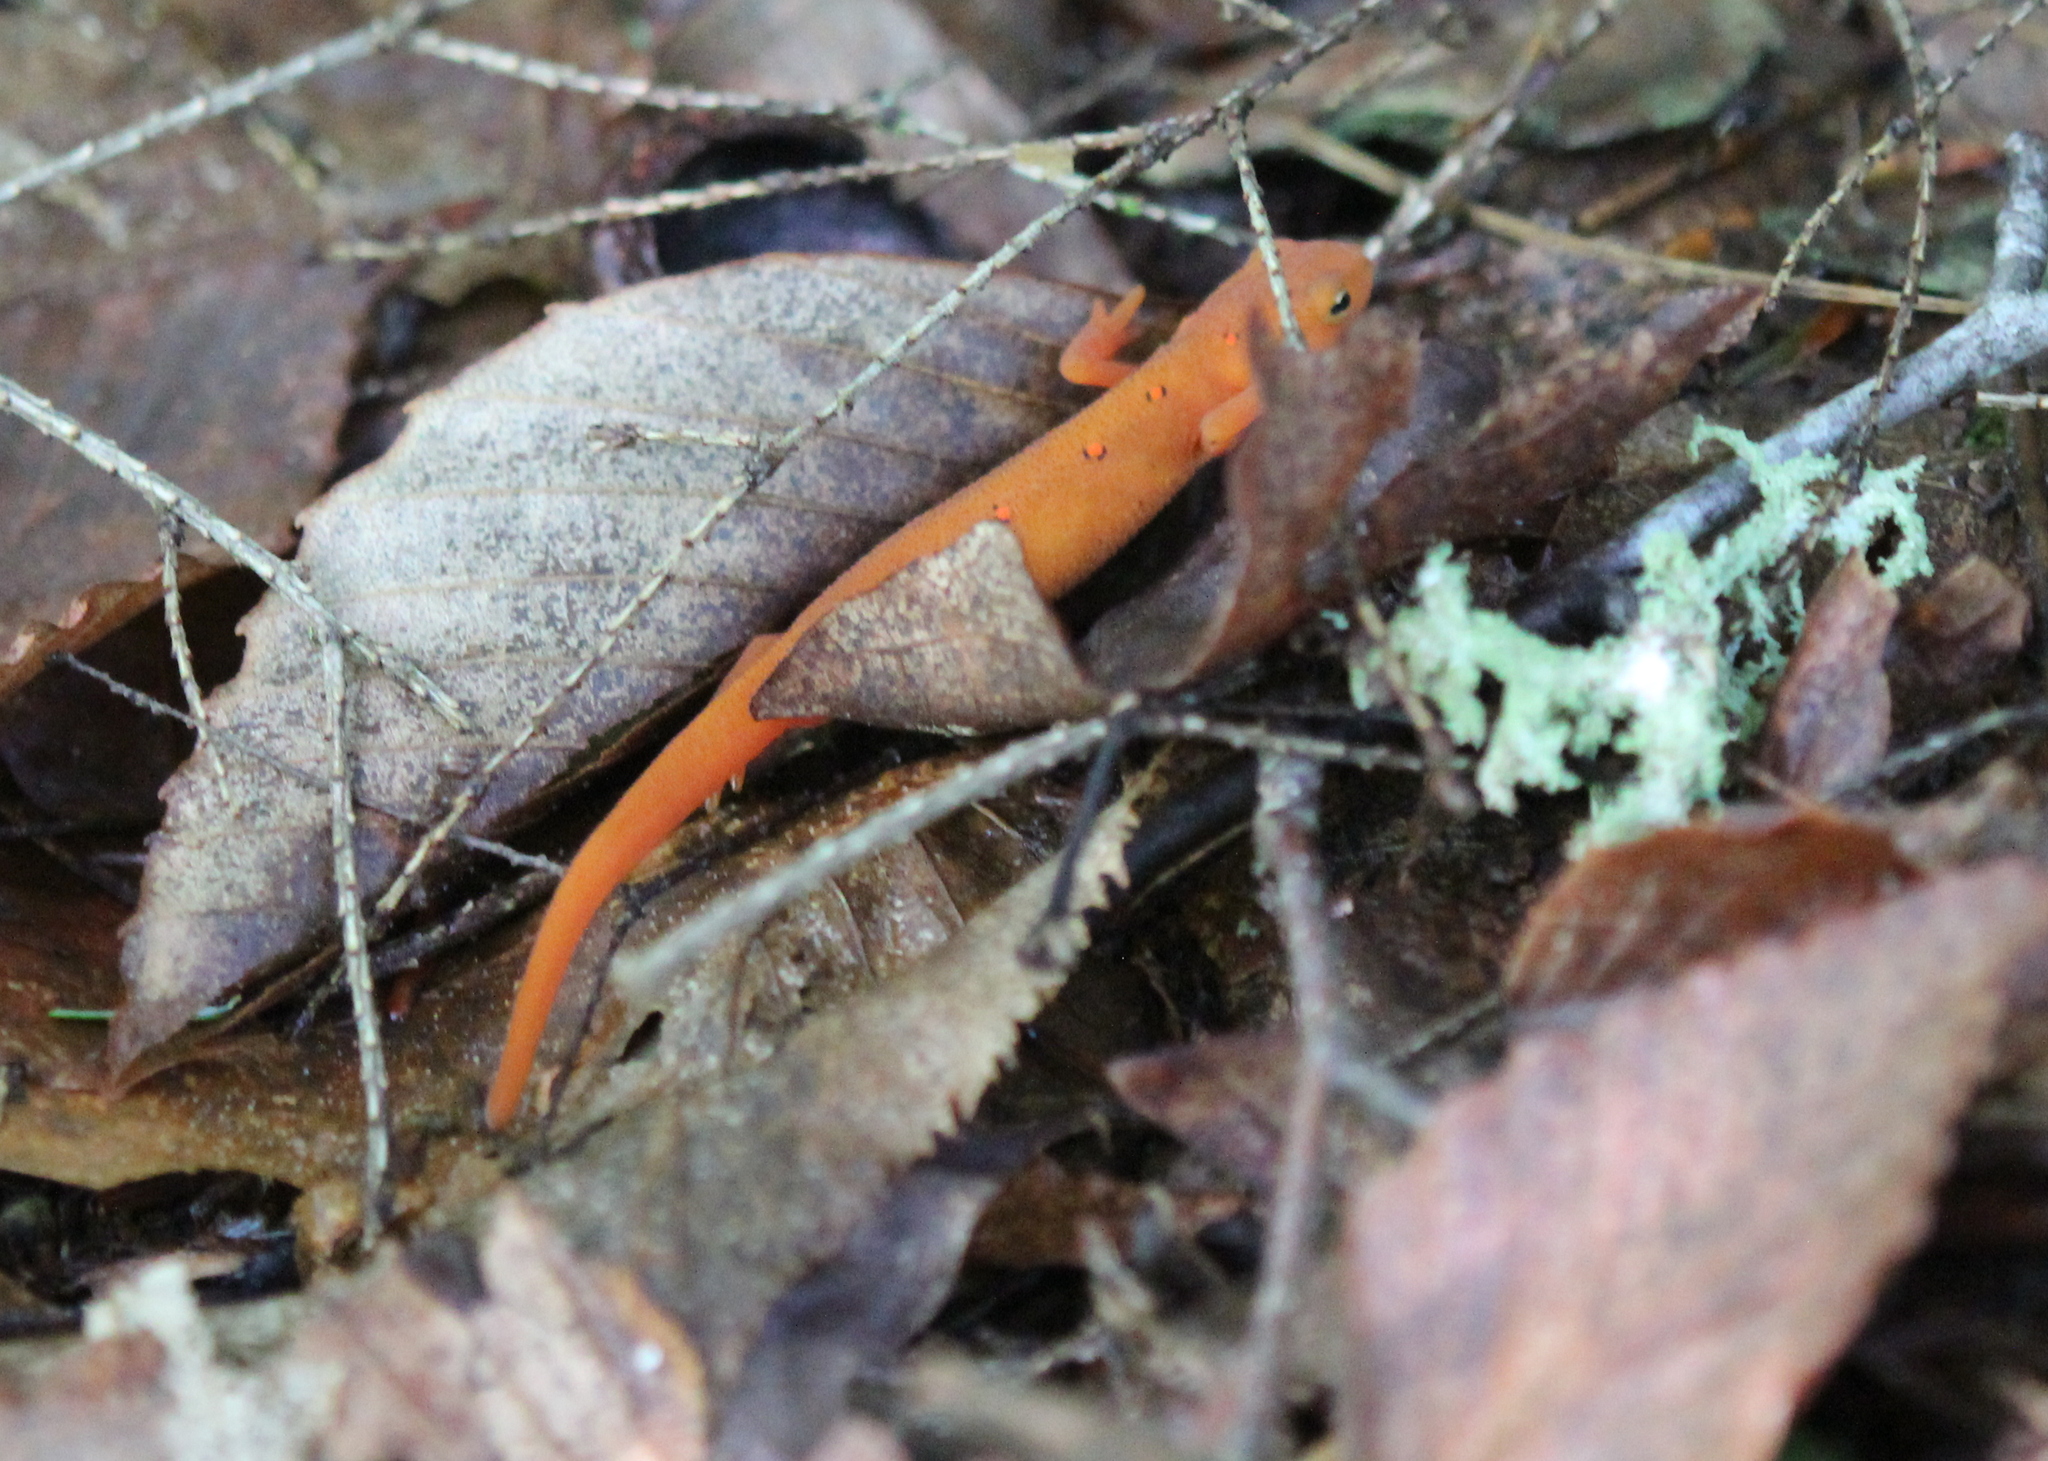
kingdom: Animalia
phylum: Chordata
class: Amphibia
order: Caudata
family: Salamandridae
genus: Notophthalmus
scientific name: Notophthalmus viridescens
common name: Eastern newt
